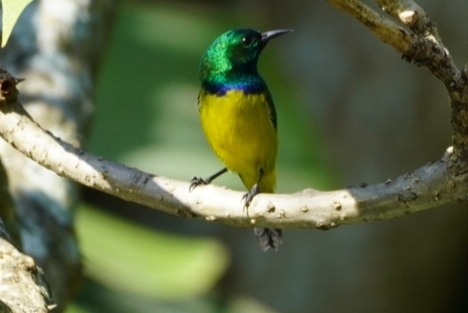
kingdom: Animalia
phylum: Chordata
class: Aves
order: Passeriformes
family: Nectariniidae
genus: Hedydipna
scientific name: Hedydipna collaris
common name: Collared sunbird
